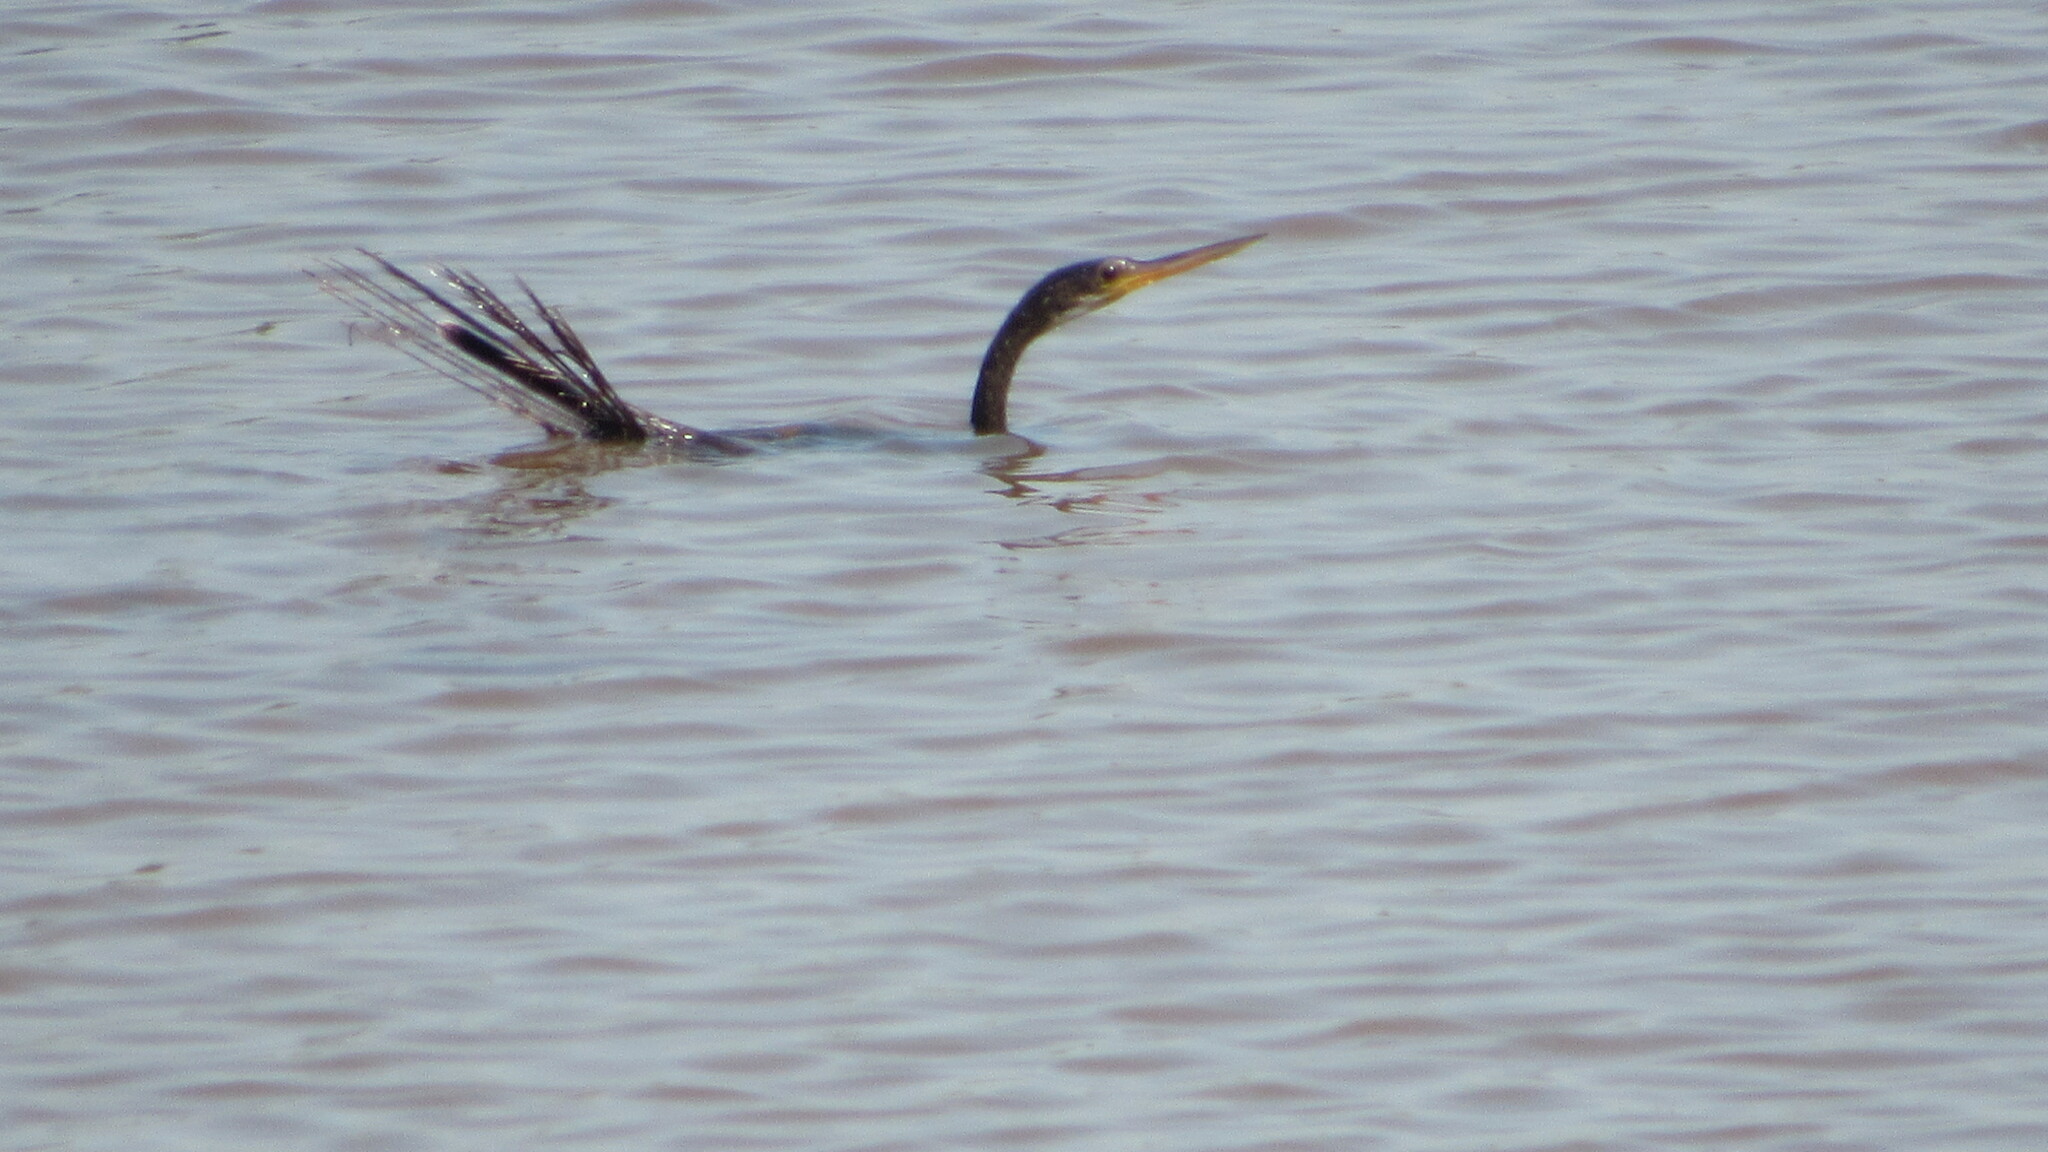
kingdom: Animalia
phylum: Chordata
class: Aves
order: Suliformes
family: Anhingidae
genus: Anhinga
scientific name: Anhinga anhinga
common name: Anhinga
